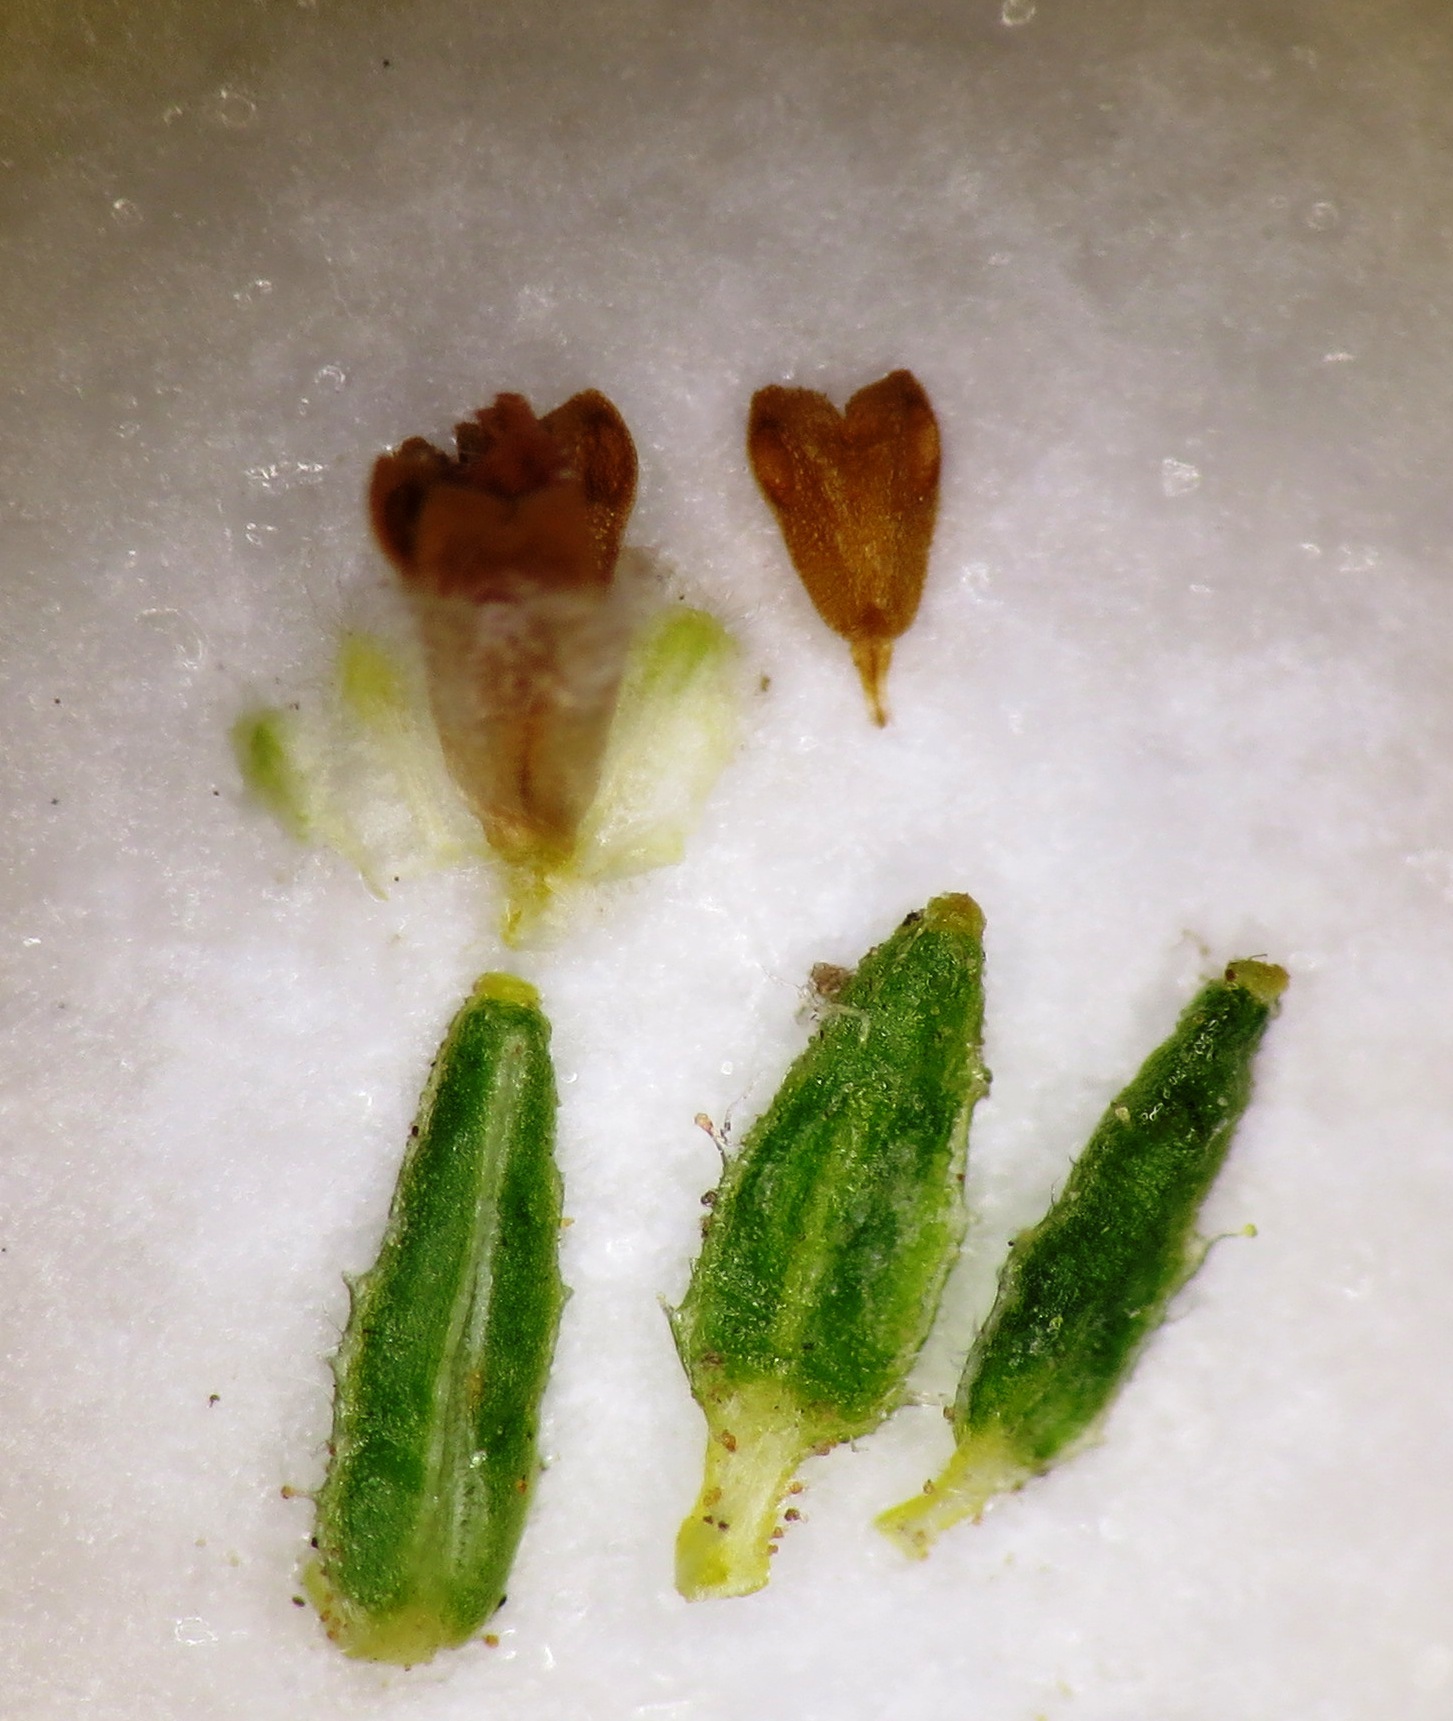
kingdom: Plantae
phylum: Tracheophyta
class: Magnoliopsida
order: Ericales
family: Ericaceae
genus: Erica
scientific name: Erica muscosa
